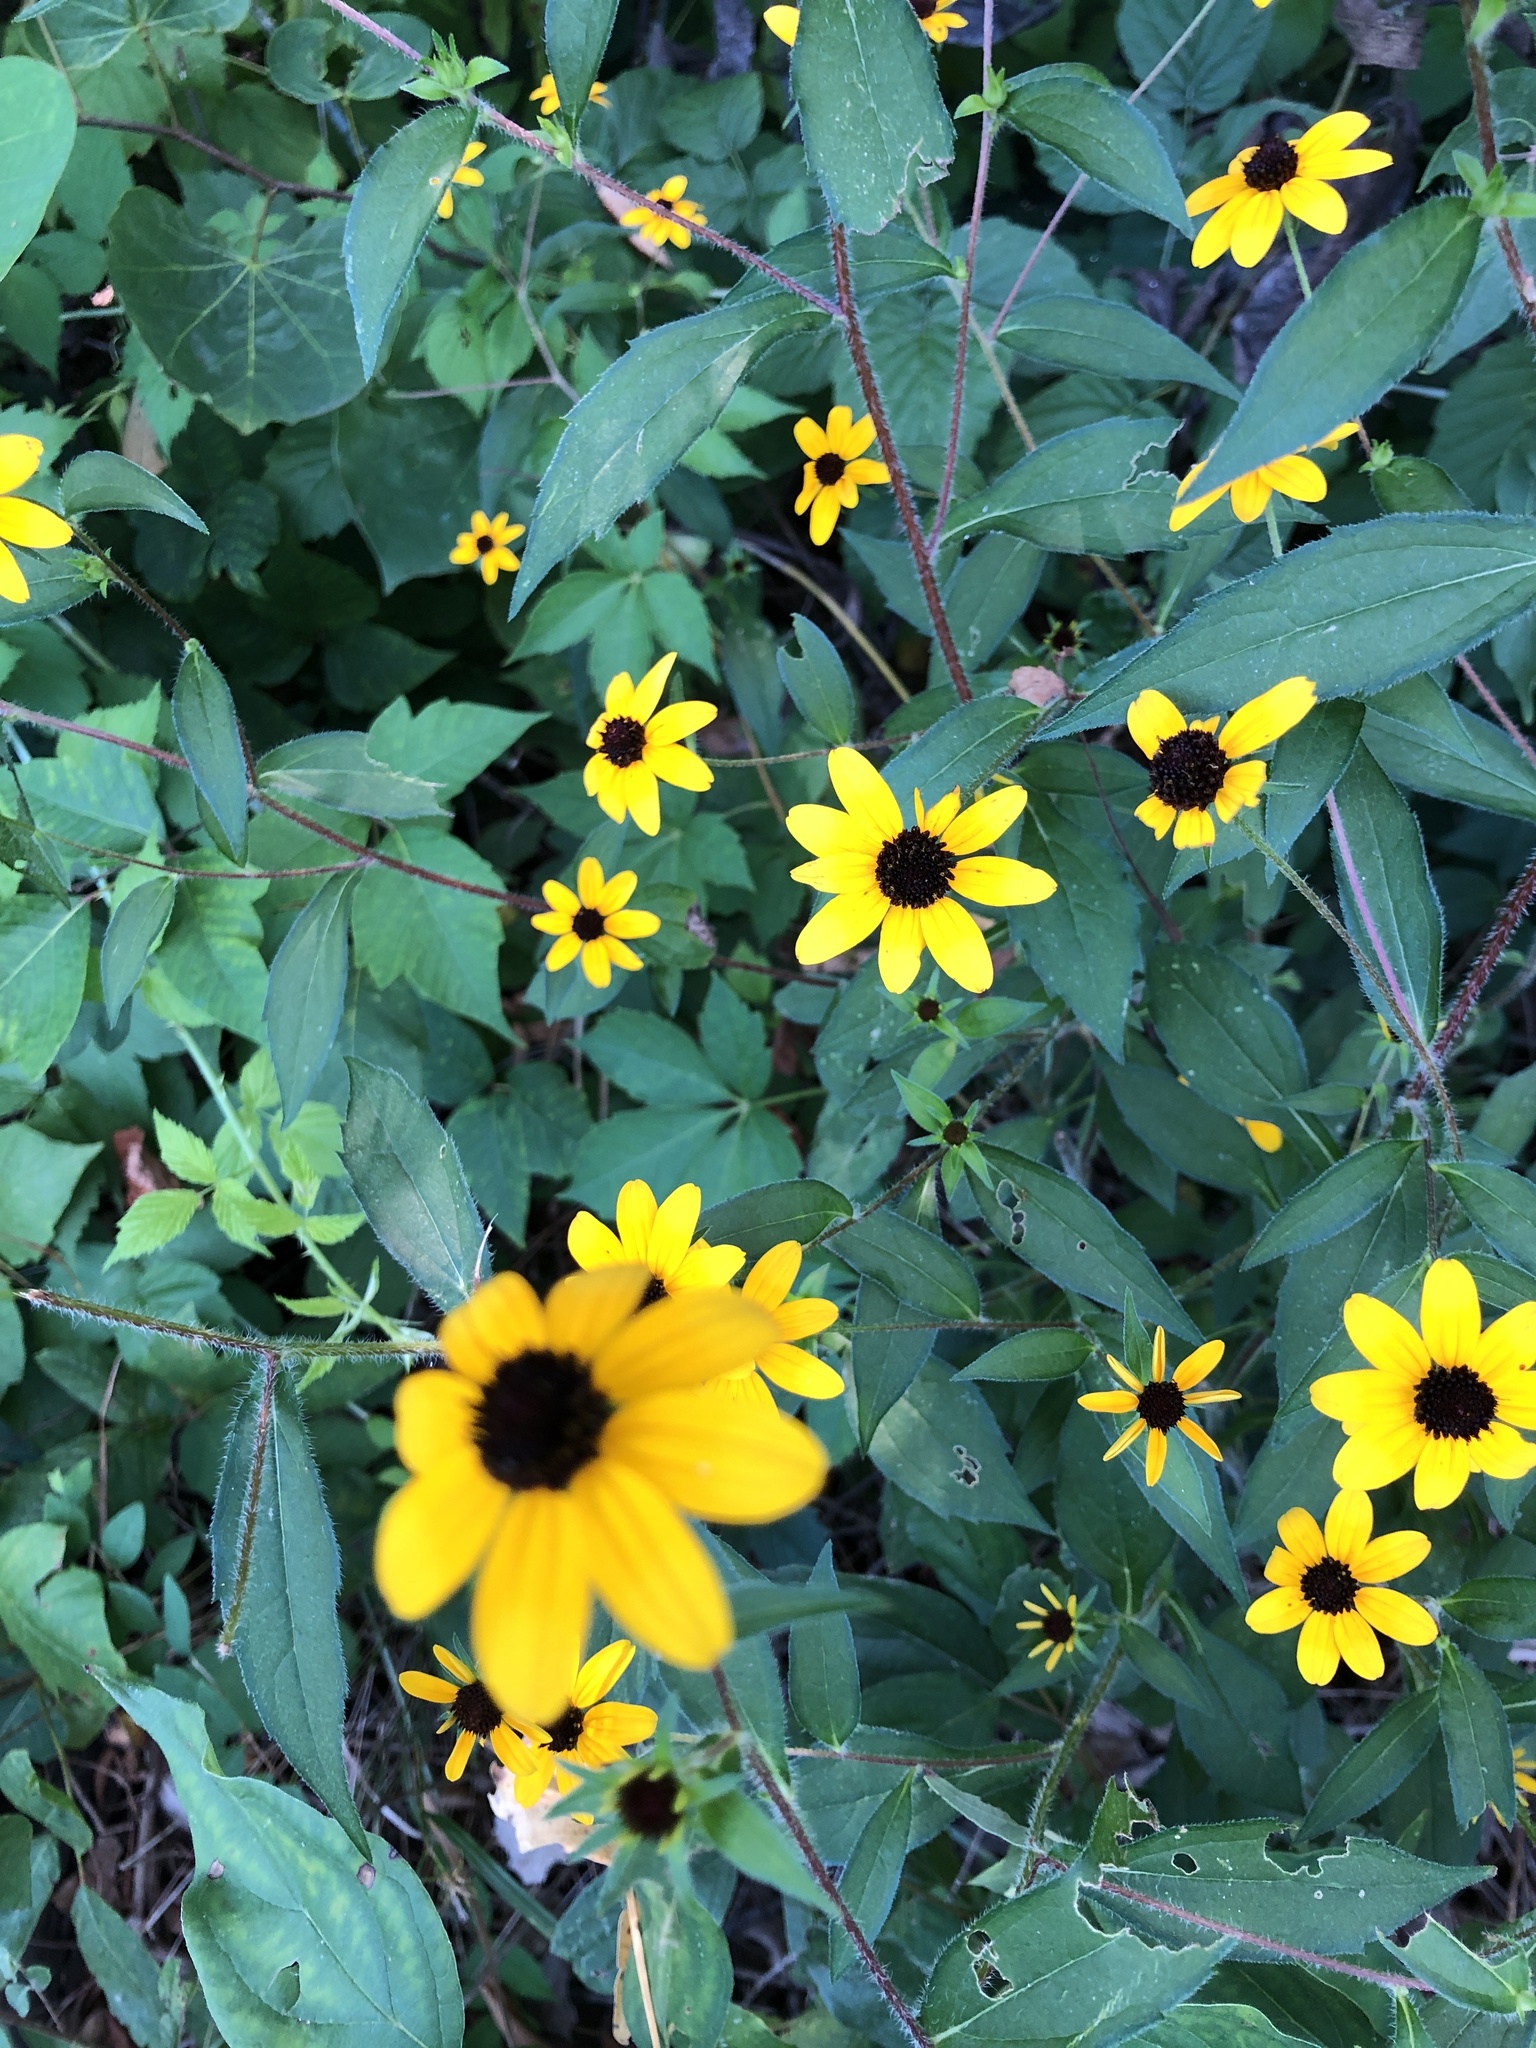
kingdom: Plantae
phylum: Tracheophyta
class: Magnoliopsida
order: Asterales
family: Asteraceae
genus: Rudbeckia
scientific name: Rudbeckia triloba
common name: Thin-leaved coneflower
